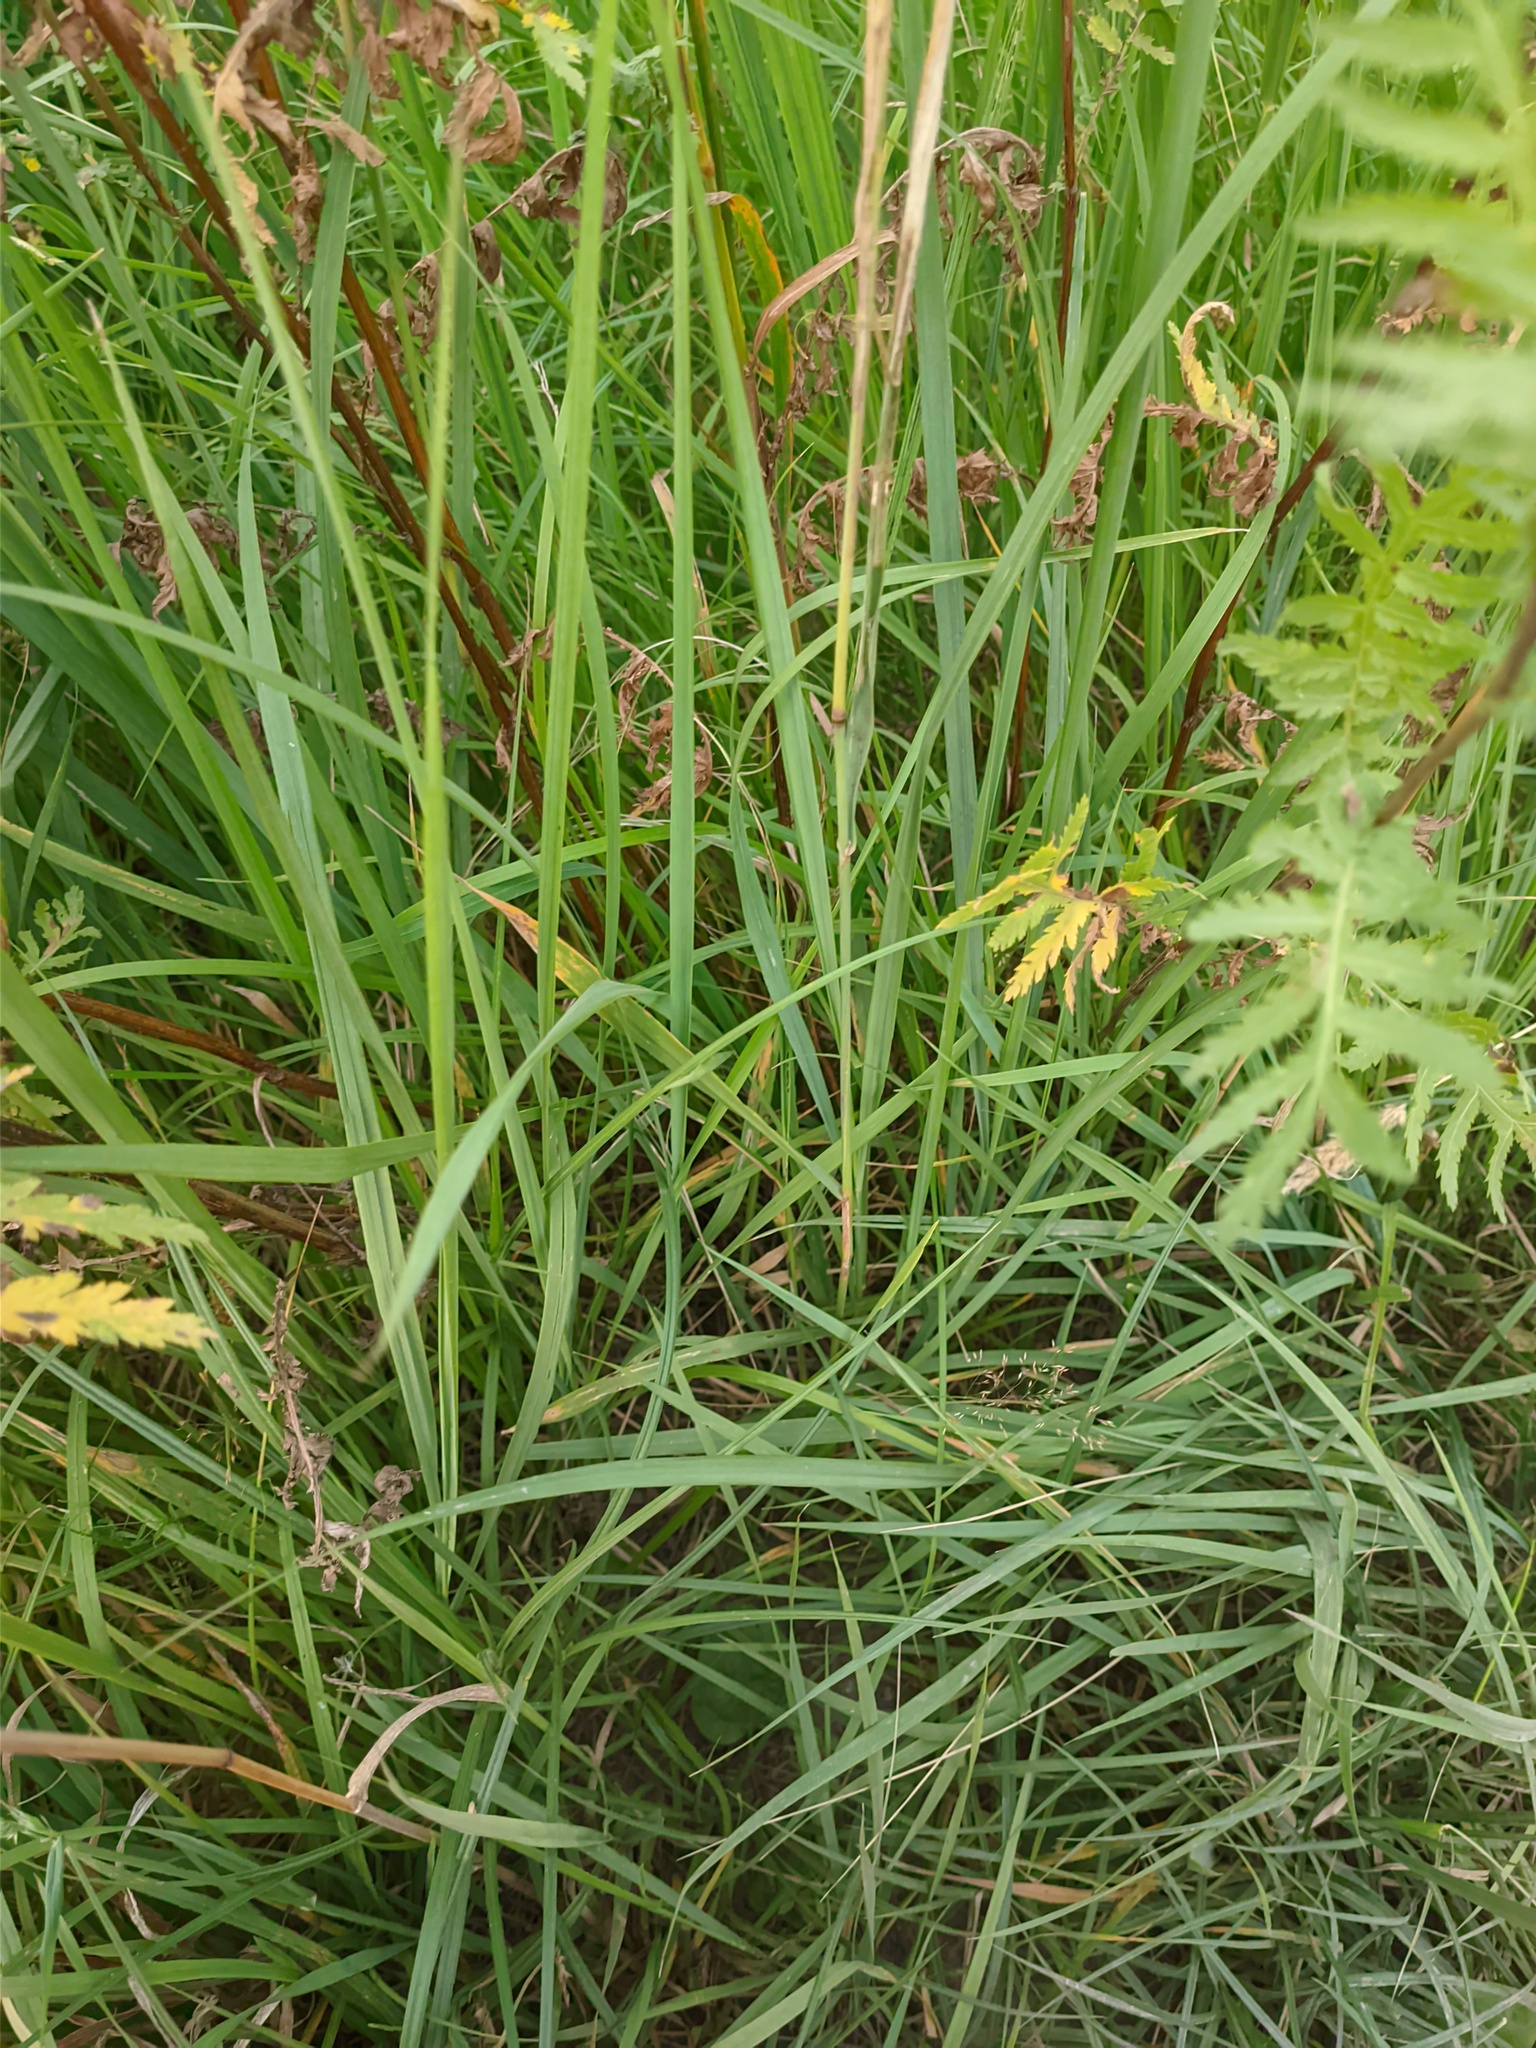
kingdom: Plantae
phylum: Tracheophyta
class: Liliopsida
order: Poales
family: Poaceae
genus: Calamagrostis
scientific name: Calamagrostis epigejos
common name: Wood small-reed
